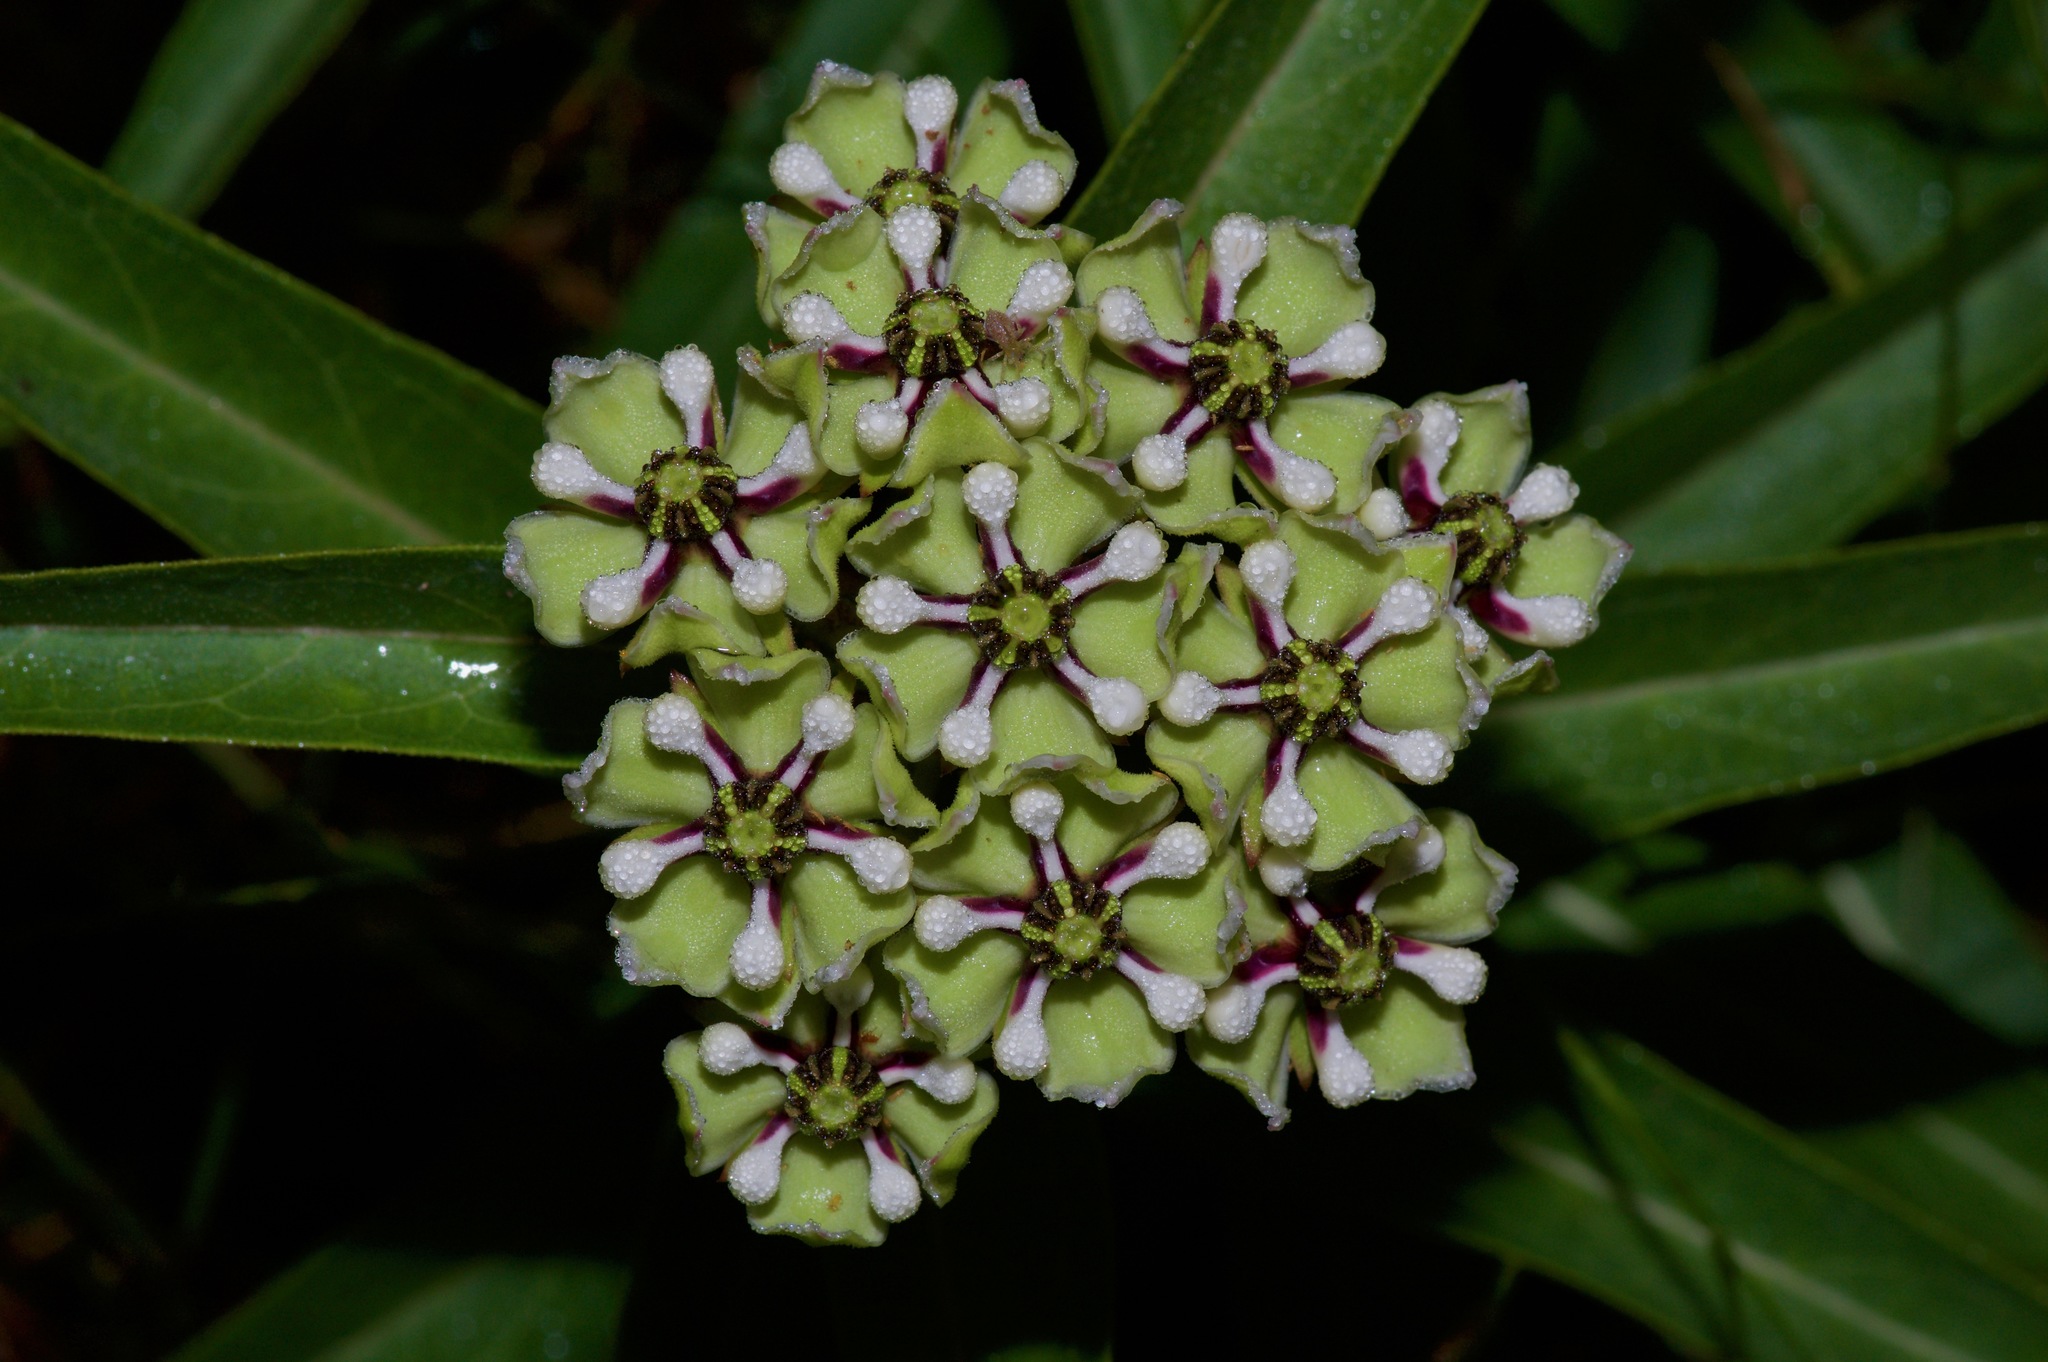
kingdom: Plantae
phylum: Tracheophyta
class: Magnoliopsida
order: Gentianales
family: Apocynaceae
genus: Asclepias
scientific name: Asclepias asperula
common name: Antelope horns
